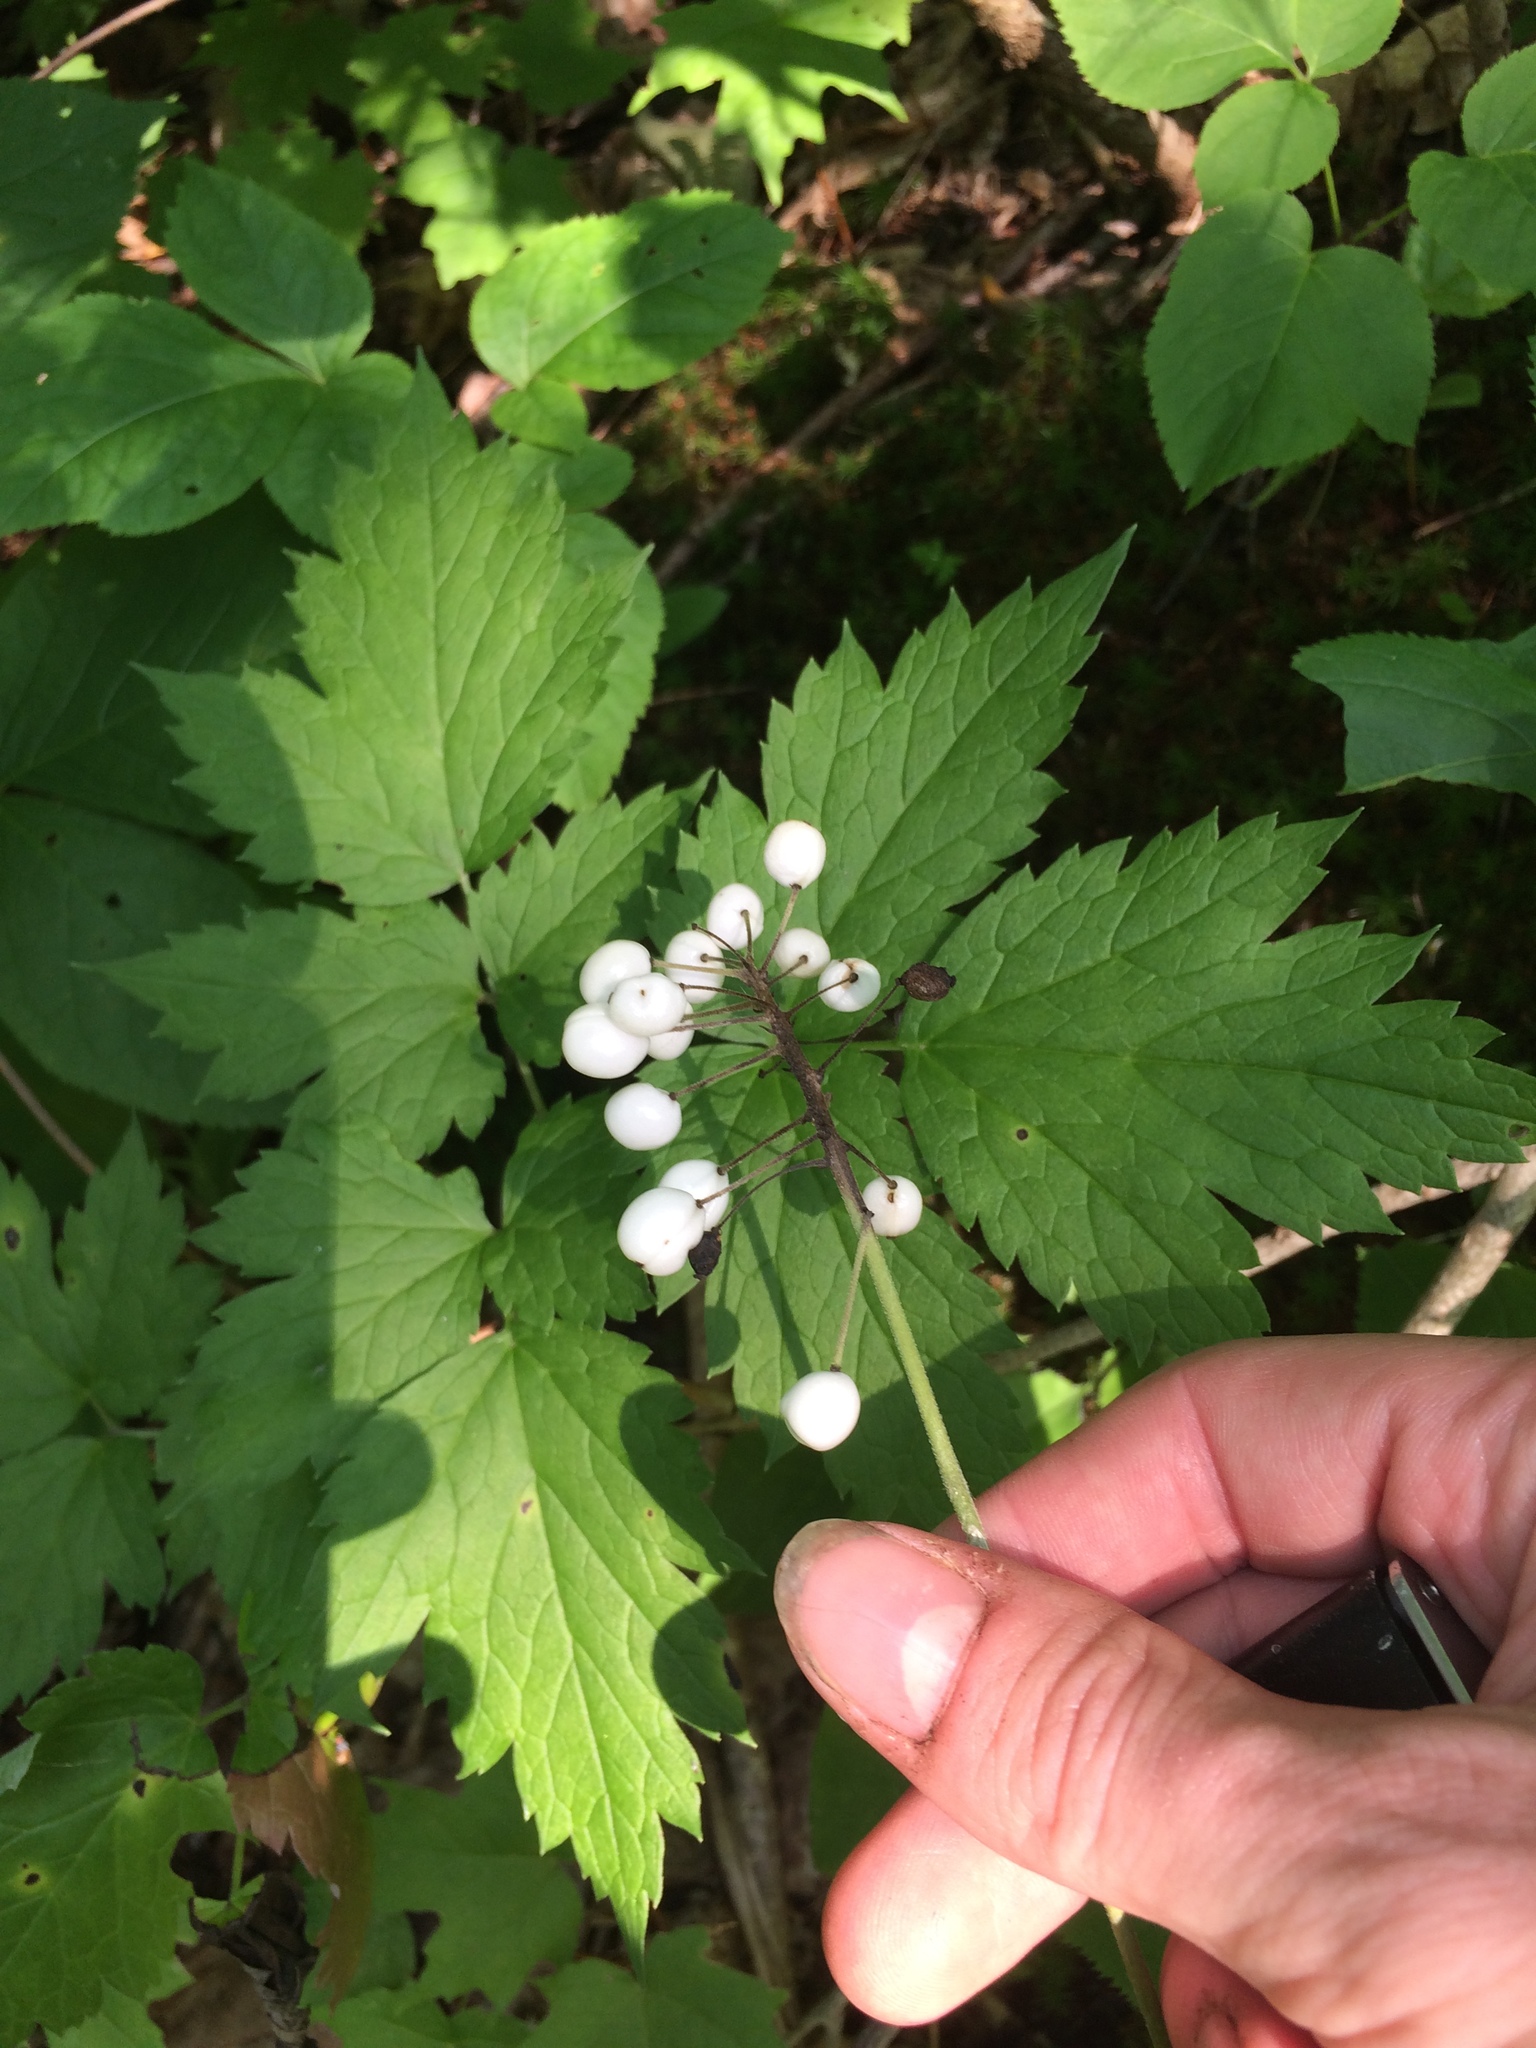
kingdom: Plantae
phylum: Tracheophyta
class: Magnoliopsida
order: Ranunculales
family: Ranunculaceae
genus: Actaea
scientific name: Actaea rubra
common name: Red baneberry
